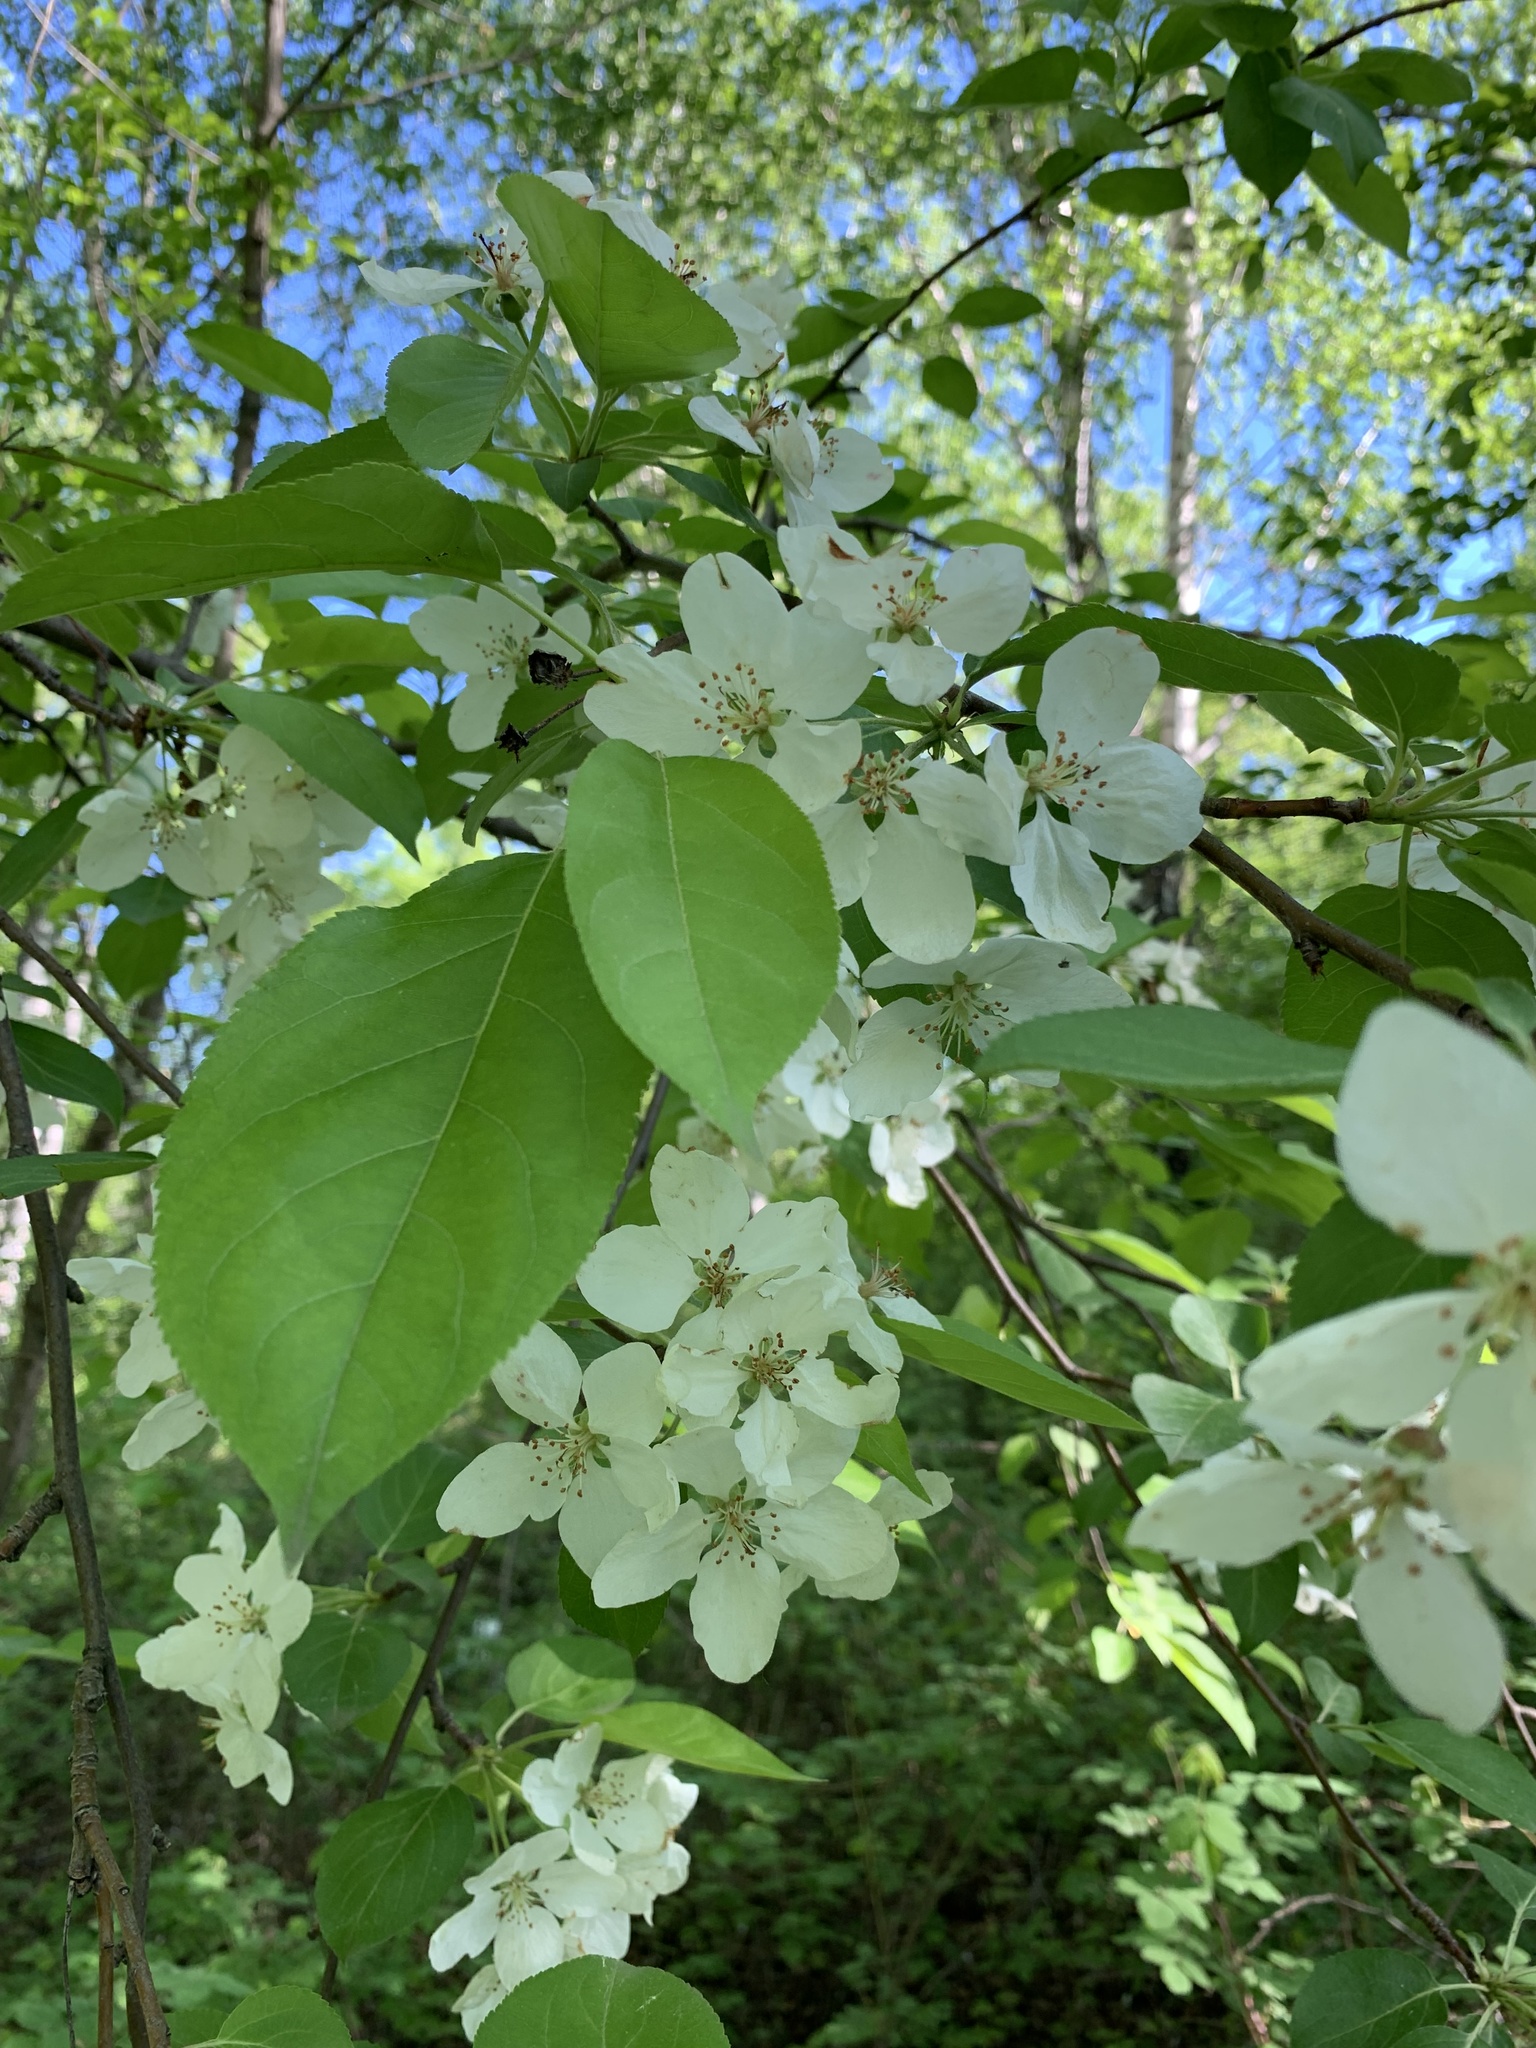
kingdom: Plantae
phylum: Tracheophyta
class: Magnoliopsida
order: Rosales
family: Rosaceae
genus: Malus
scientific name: Malus baccata
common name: Siberian crab
